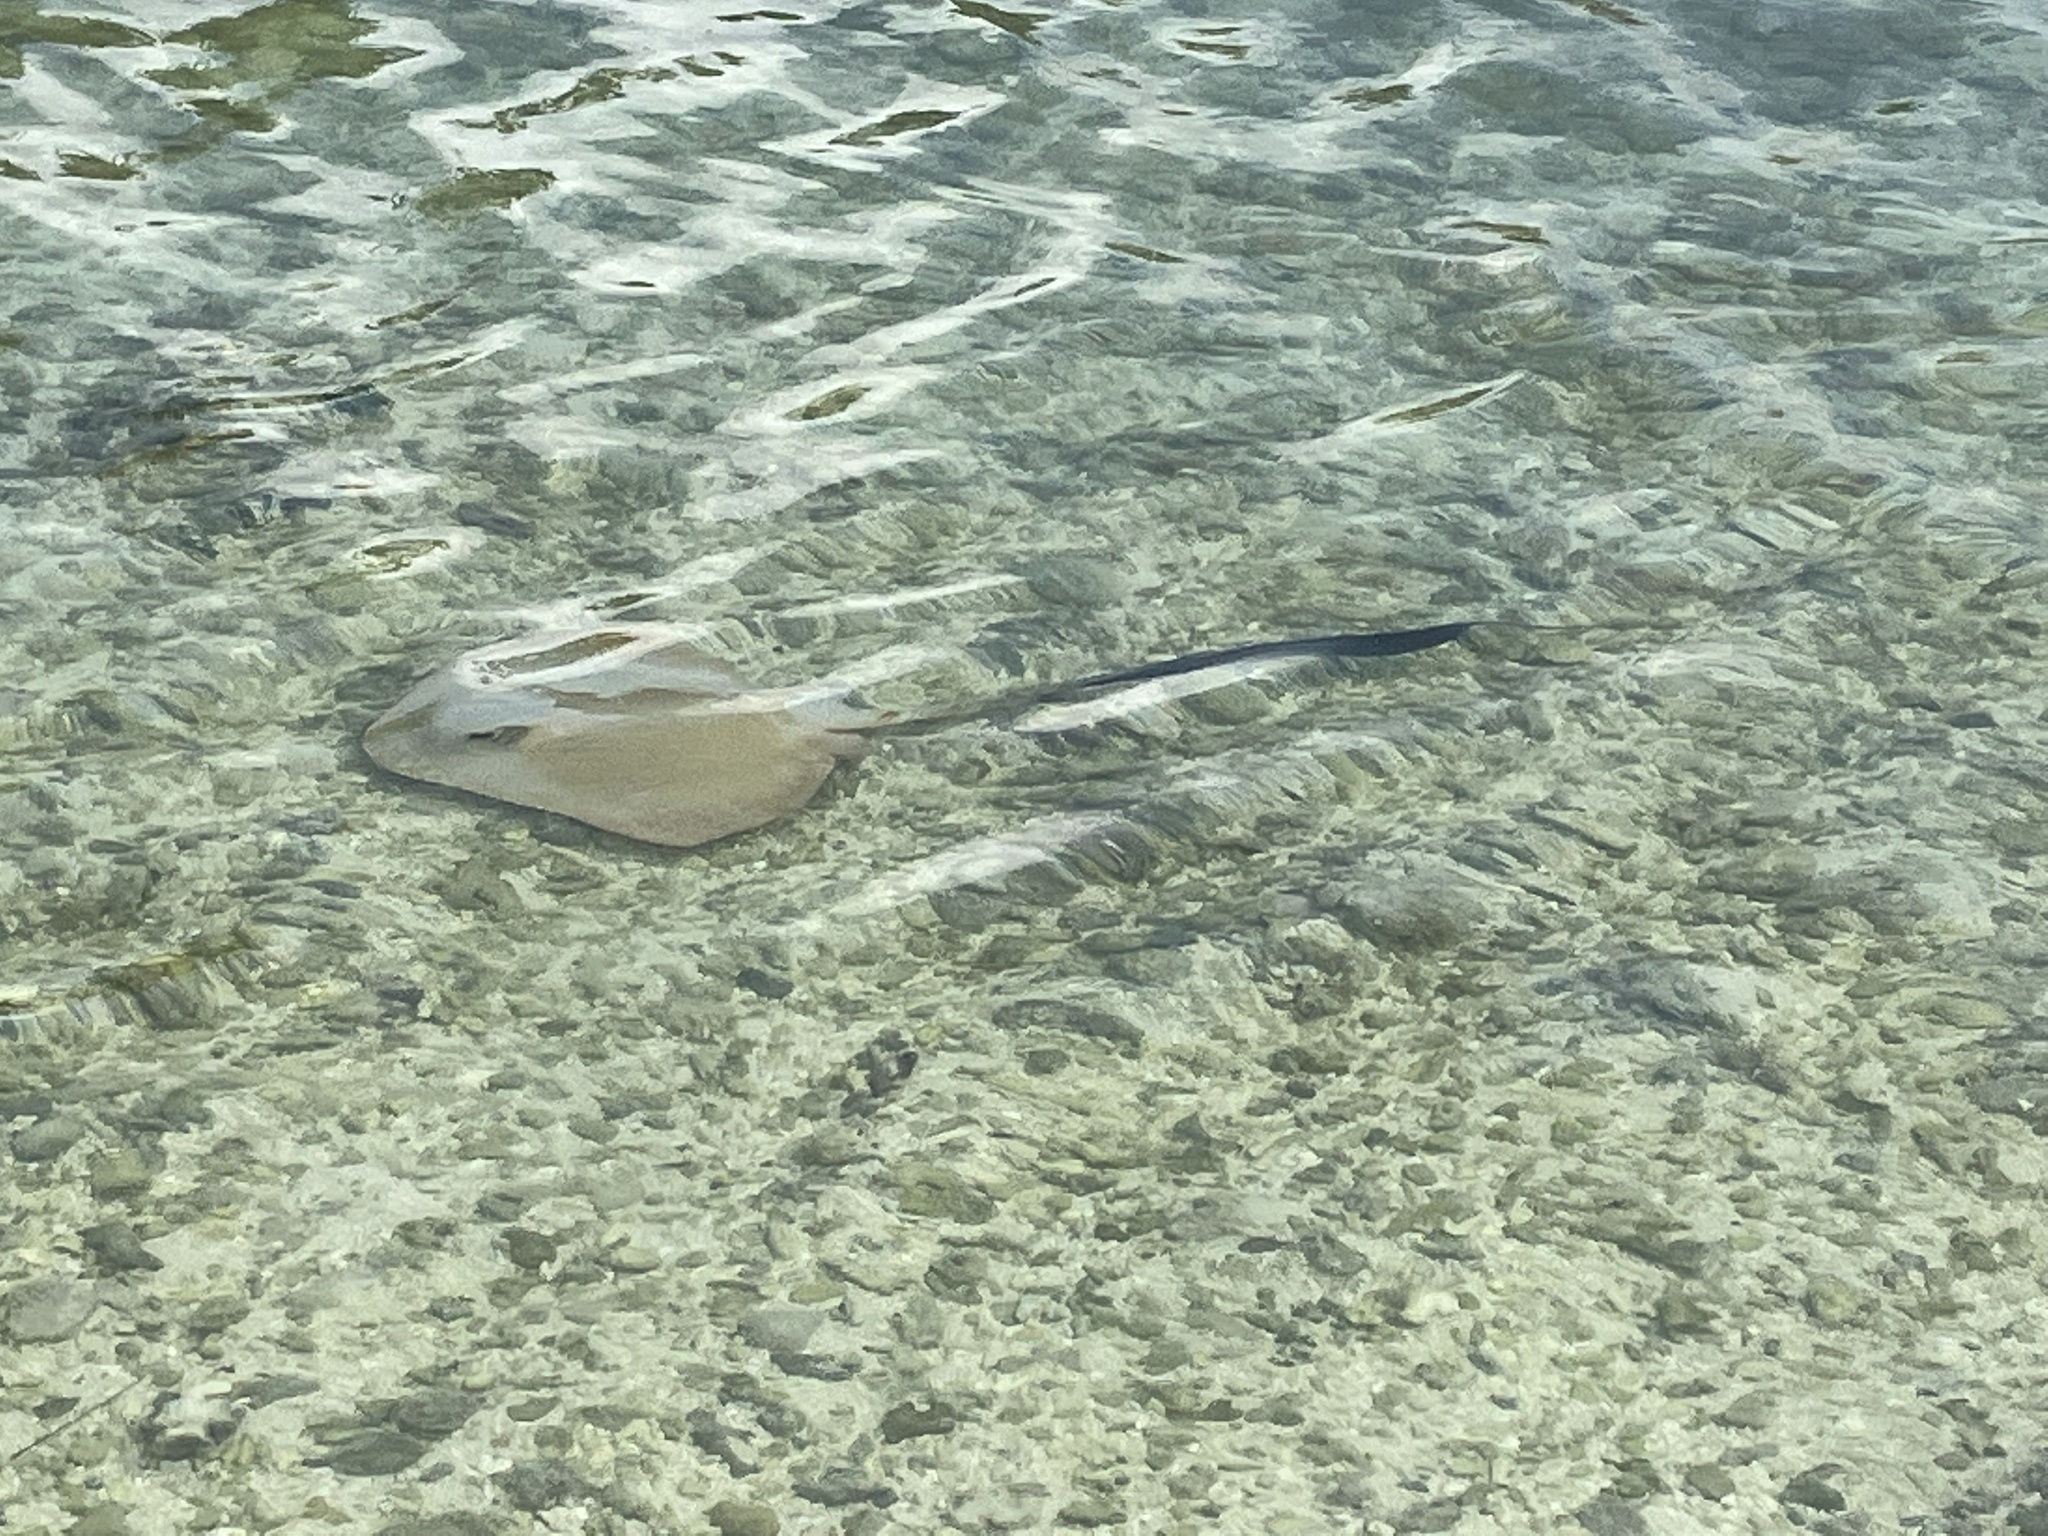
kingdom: Animalia
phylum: Chordata
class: Elasmobranchii
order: Myliobatiformes
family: Dasyatidae
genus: Pastinachus
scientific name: Pastinachus ater
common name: Banana-tail ray
